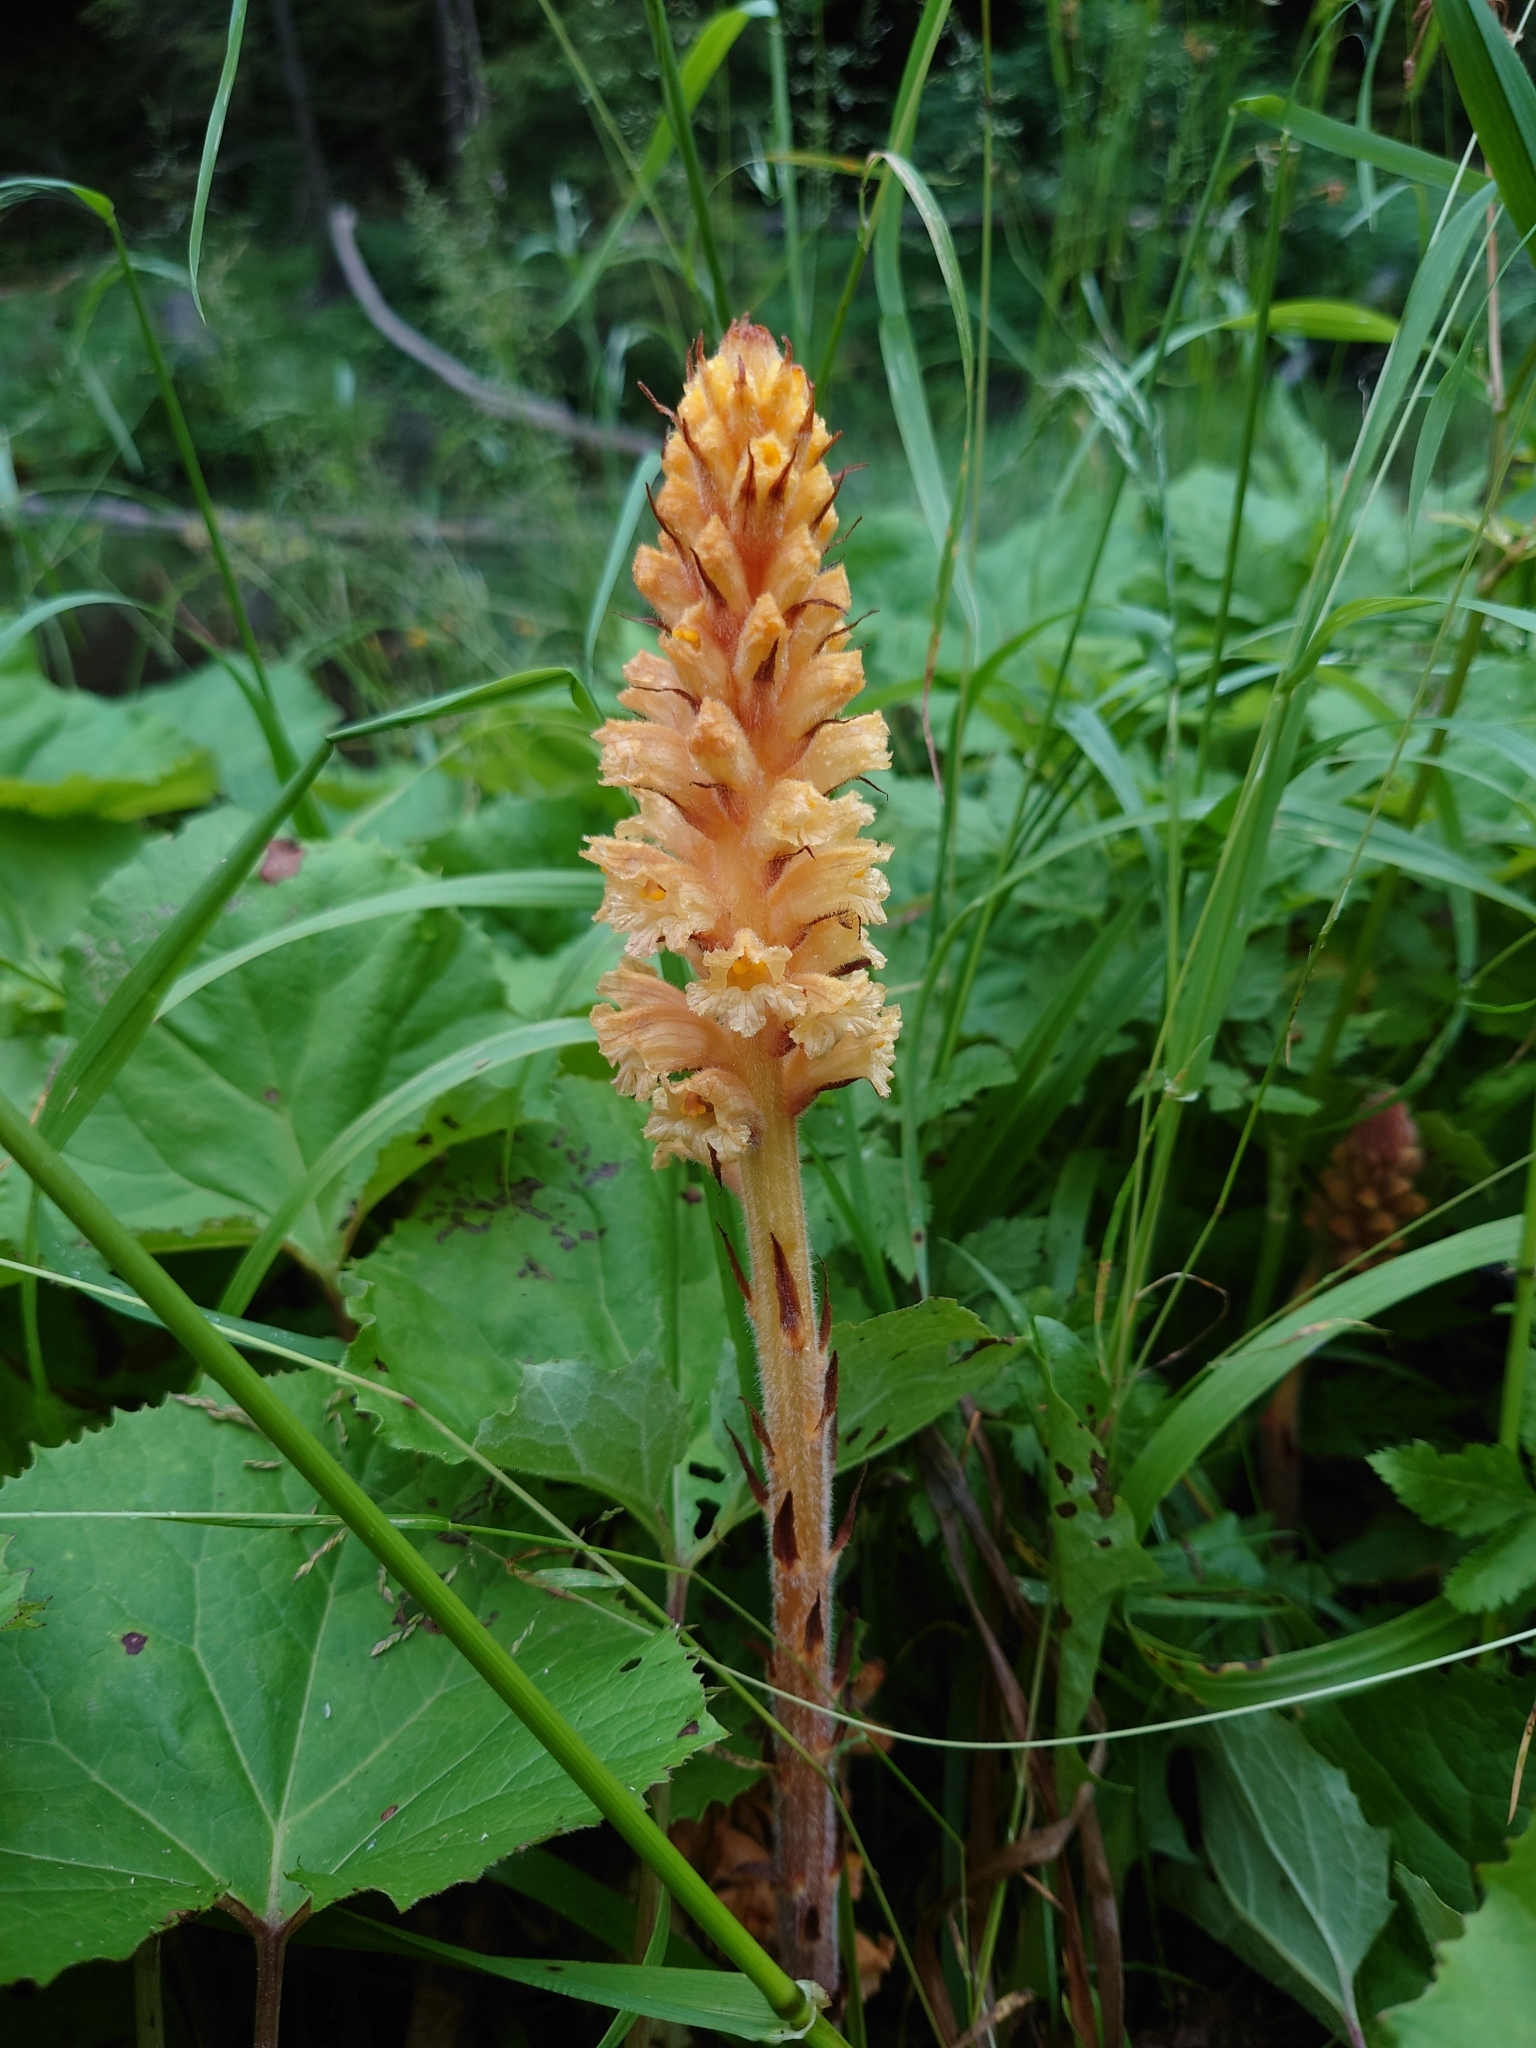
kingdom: Plantae
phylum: Tracheophyta
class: Magnoliopsida
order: Lamiales
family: Orobanchaceae
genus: Orobanche
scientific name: Orobanche flava
